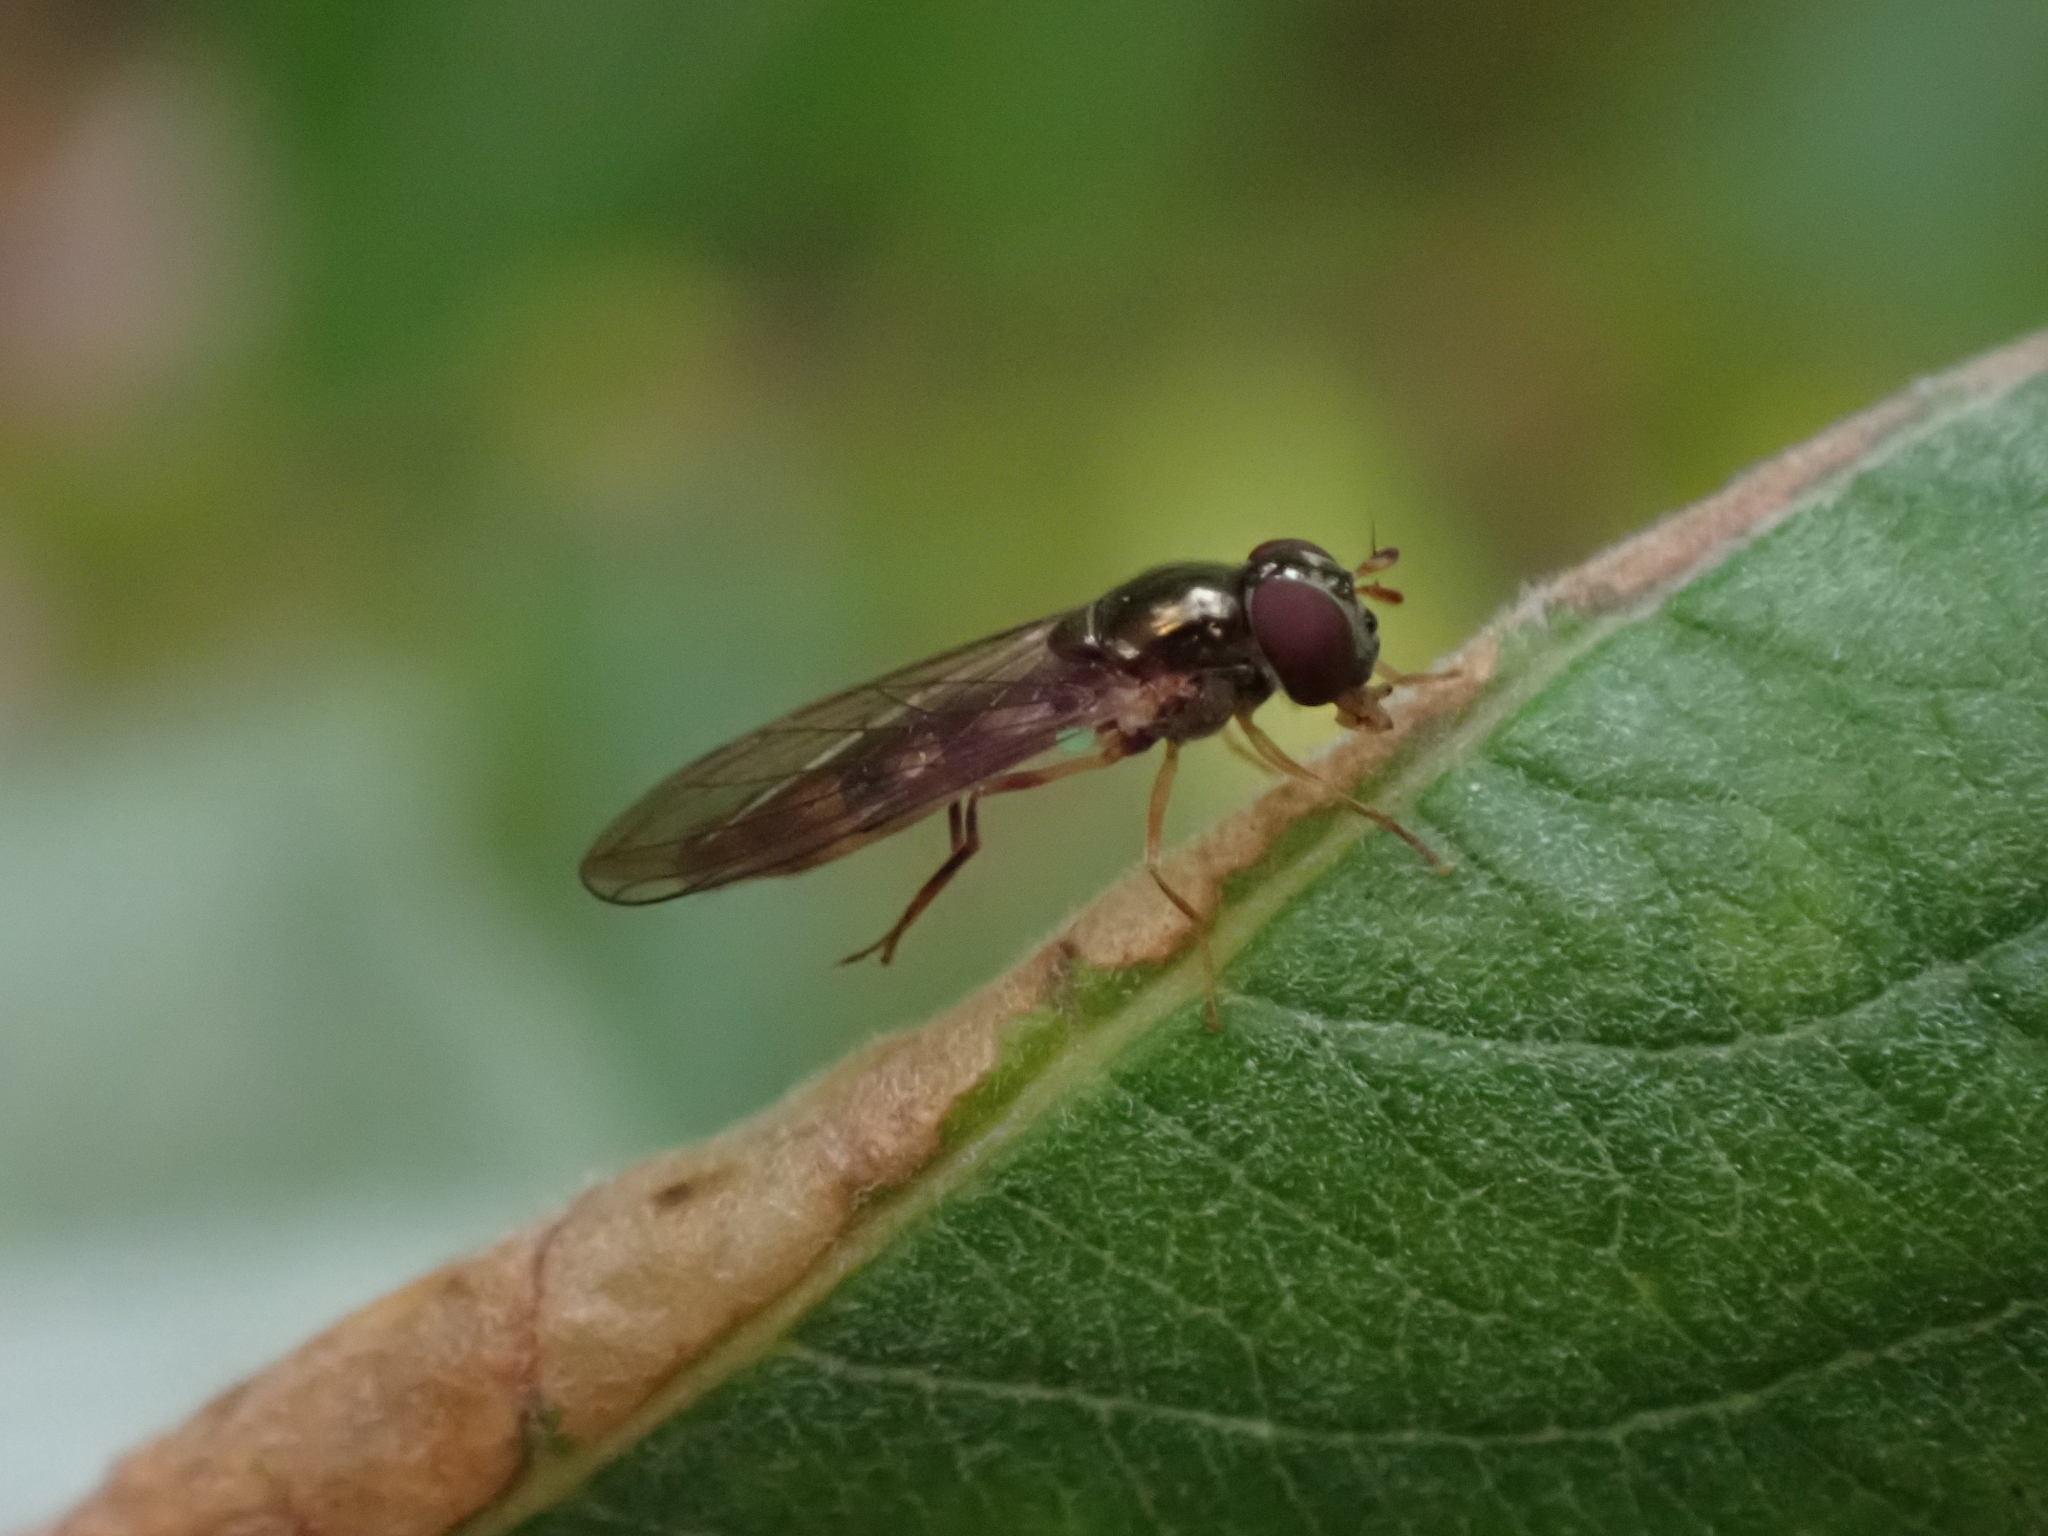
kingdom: Animalia
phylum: Arthropoda
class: Insecta
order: Diptera
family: Syrphidae
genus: Melanostoma
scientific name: Melanostoma mellina
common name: Hover fly
